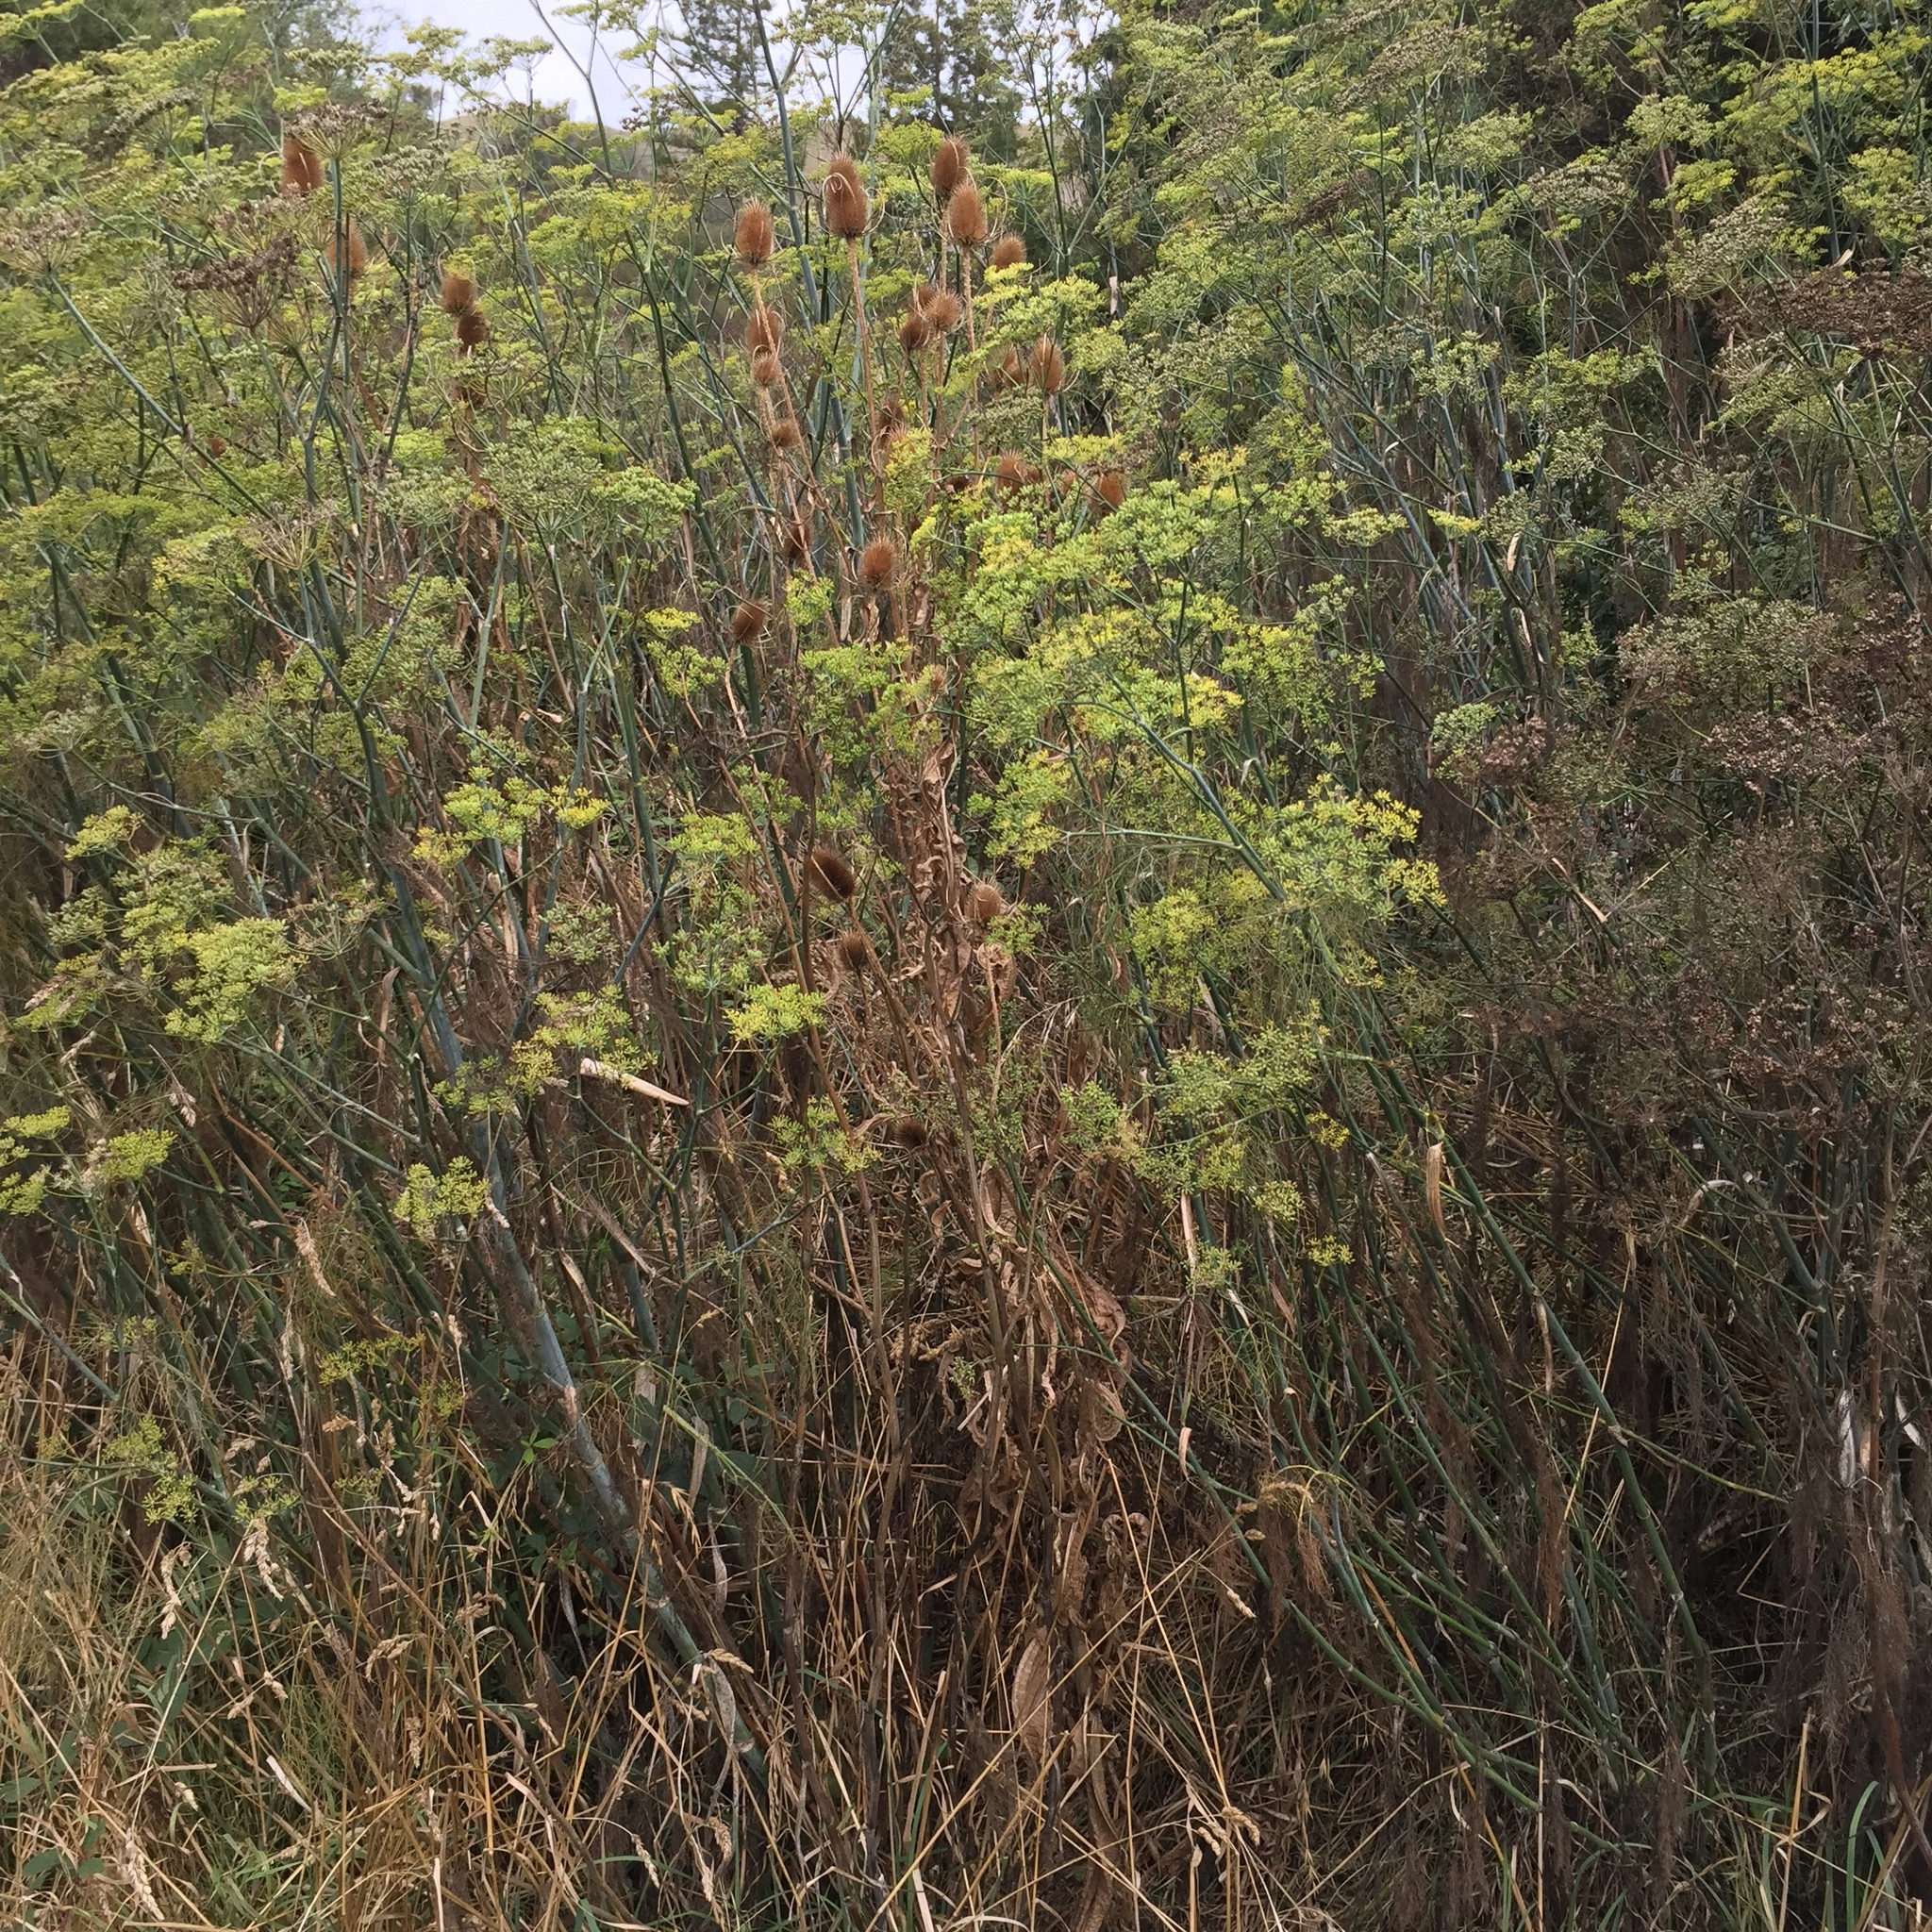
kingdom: Plantae
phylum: Tracheophyta
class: Magnoliopsida
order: Apiales
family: Apiaceae
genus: Foeniculum
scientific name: Foeniculum vulgare
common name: Fennel
